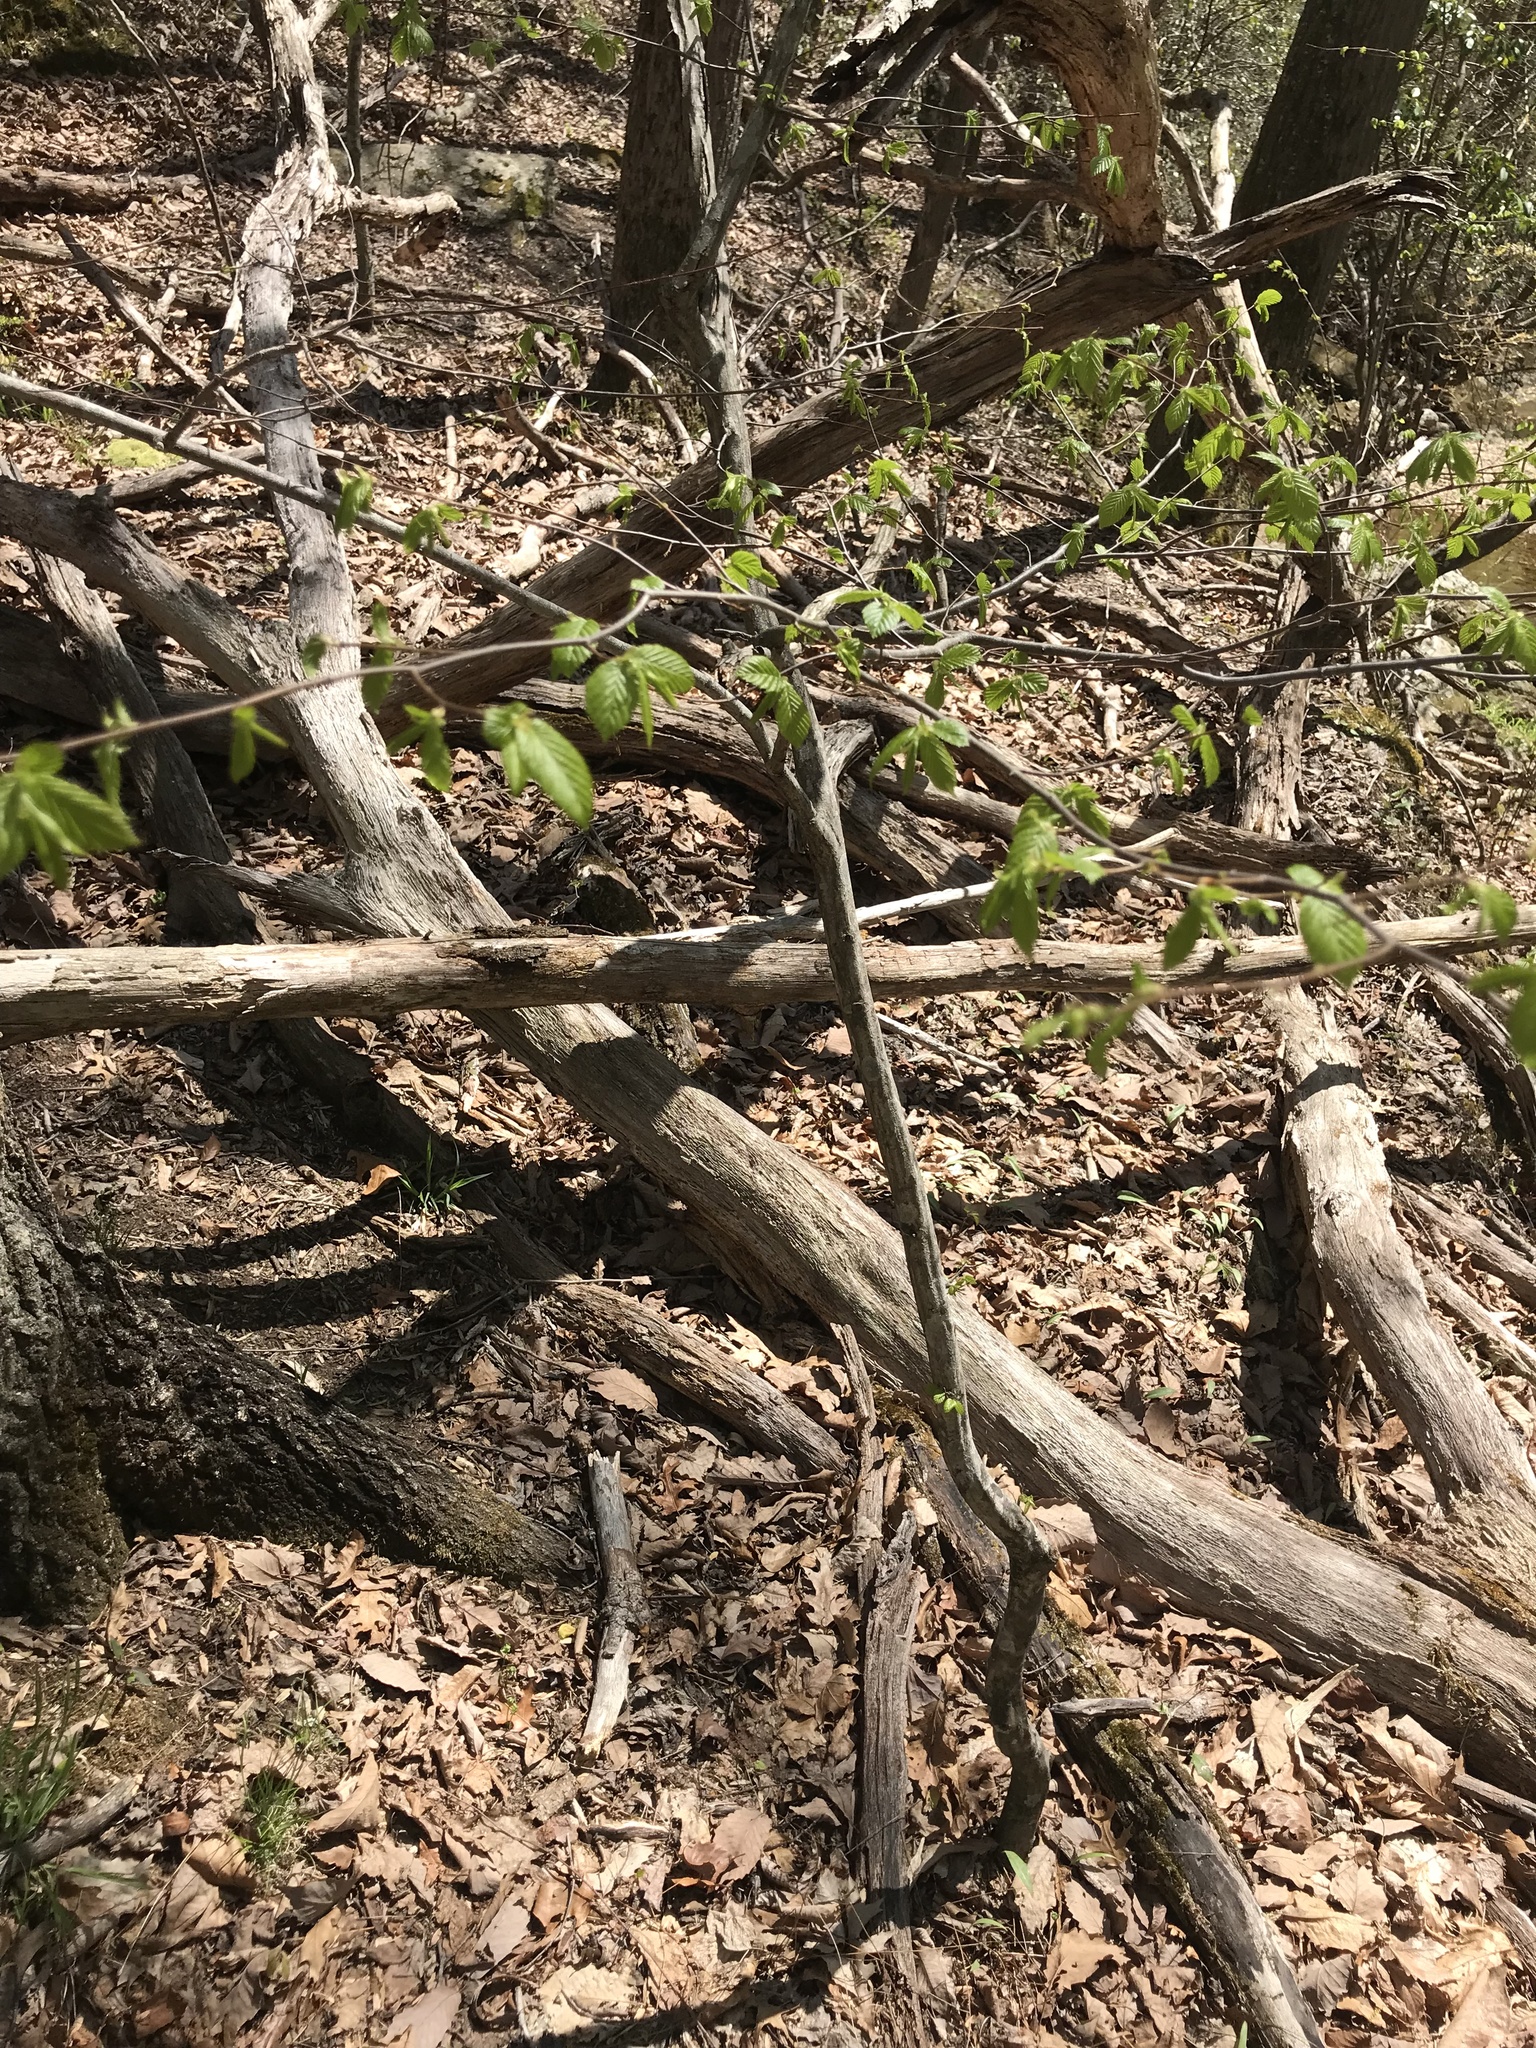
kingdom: Plantae
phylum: Tracheophyta
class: Magnoliopsida
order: Fagales
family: Betulaceae
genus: Carpinus
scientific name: Carpinus caroliniana
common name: American hornbeam
